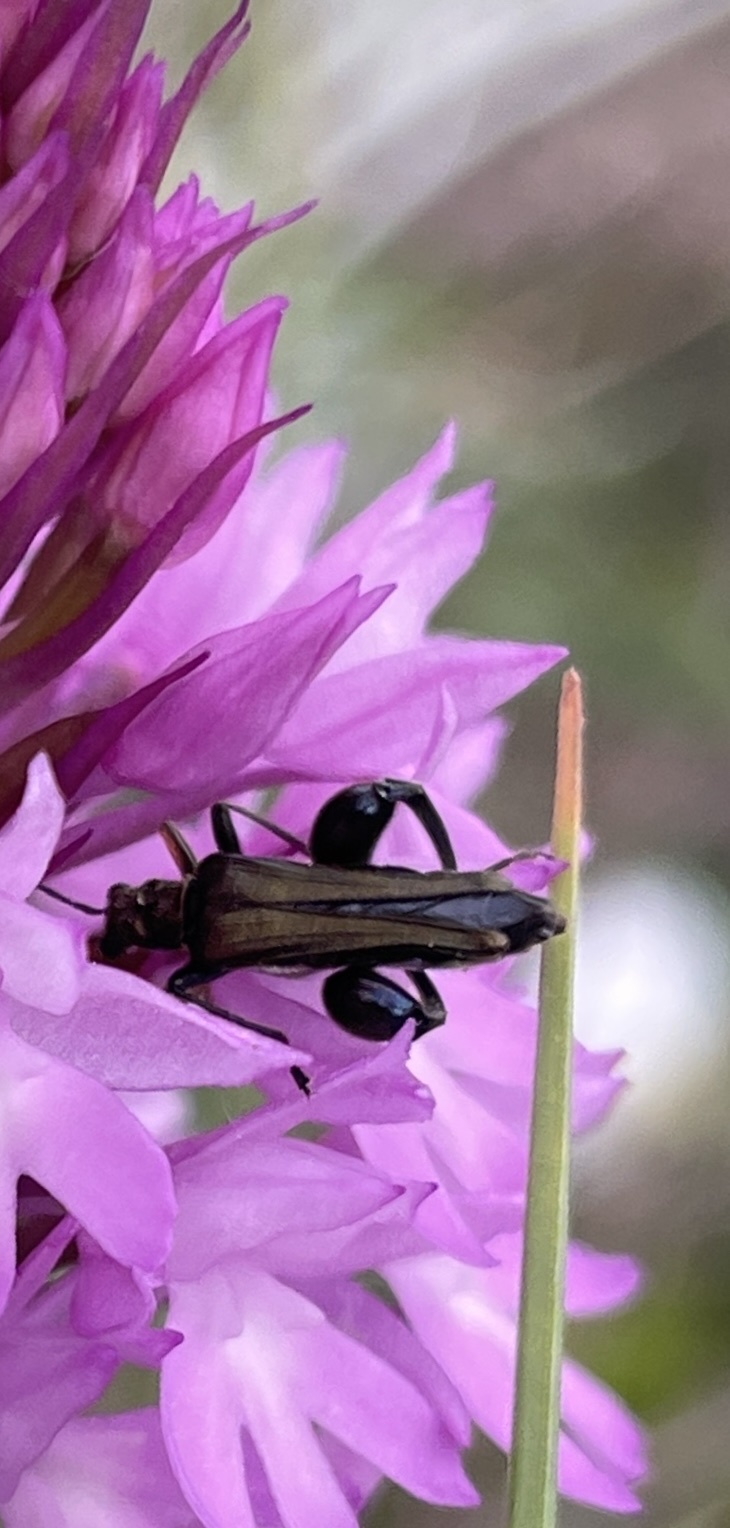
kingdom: Animalia
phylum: Arthropoda
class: Insecta
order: Coleoptera
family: Oedemeridae
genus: Oedemera
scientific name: Oedemera flavipes
